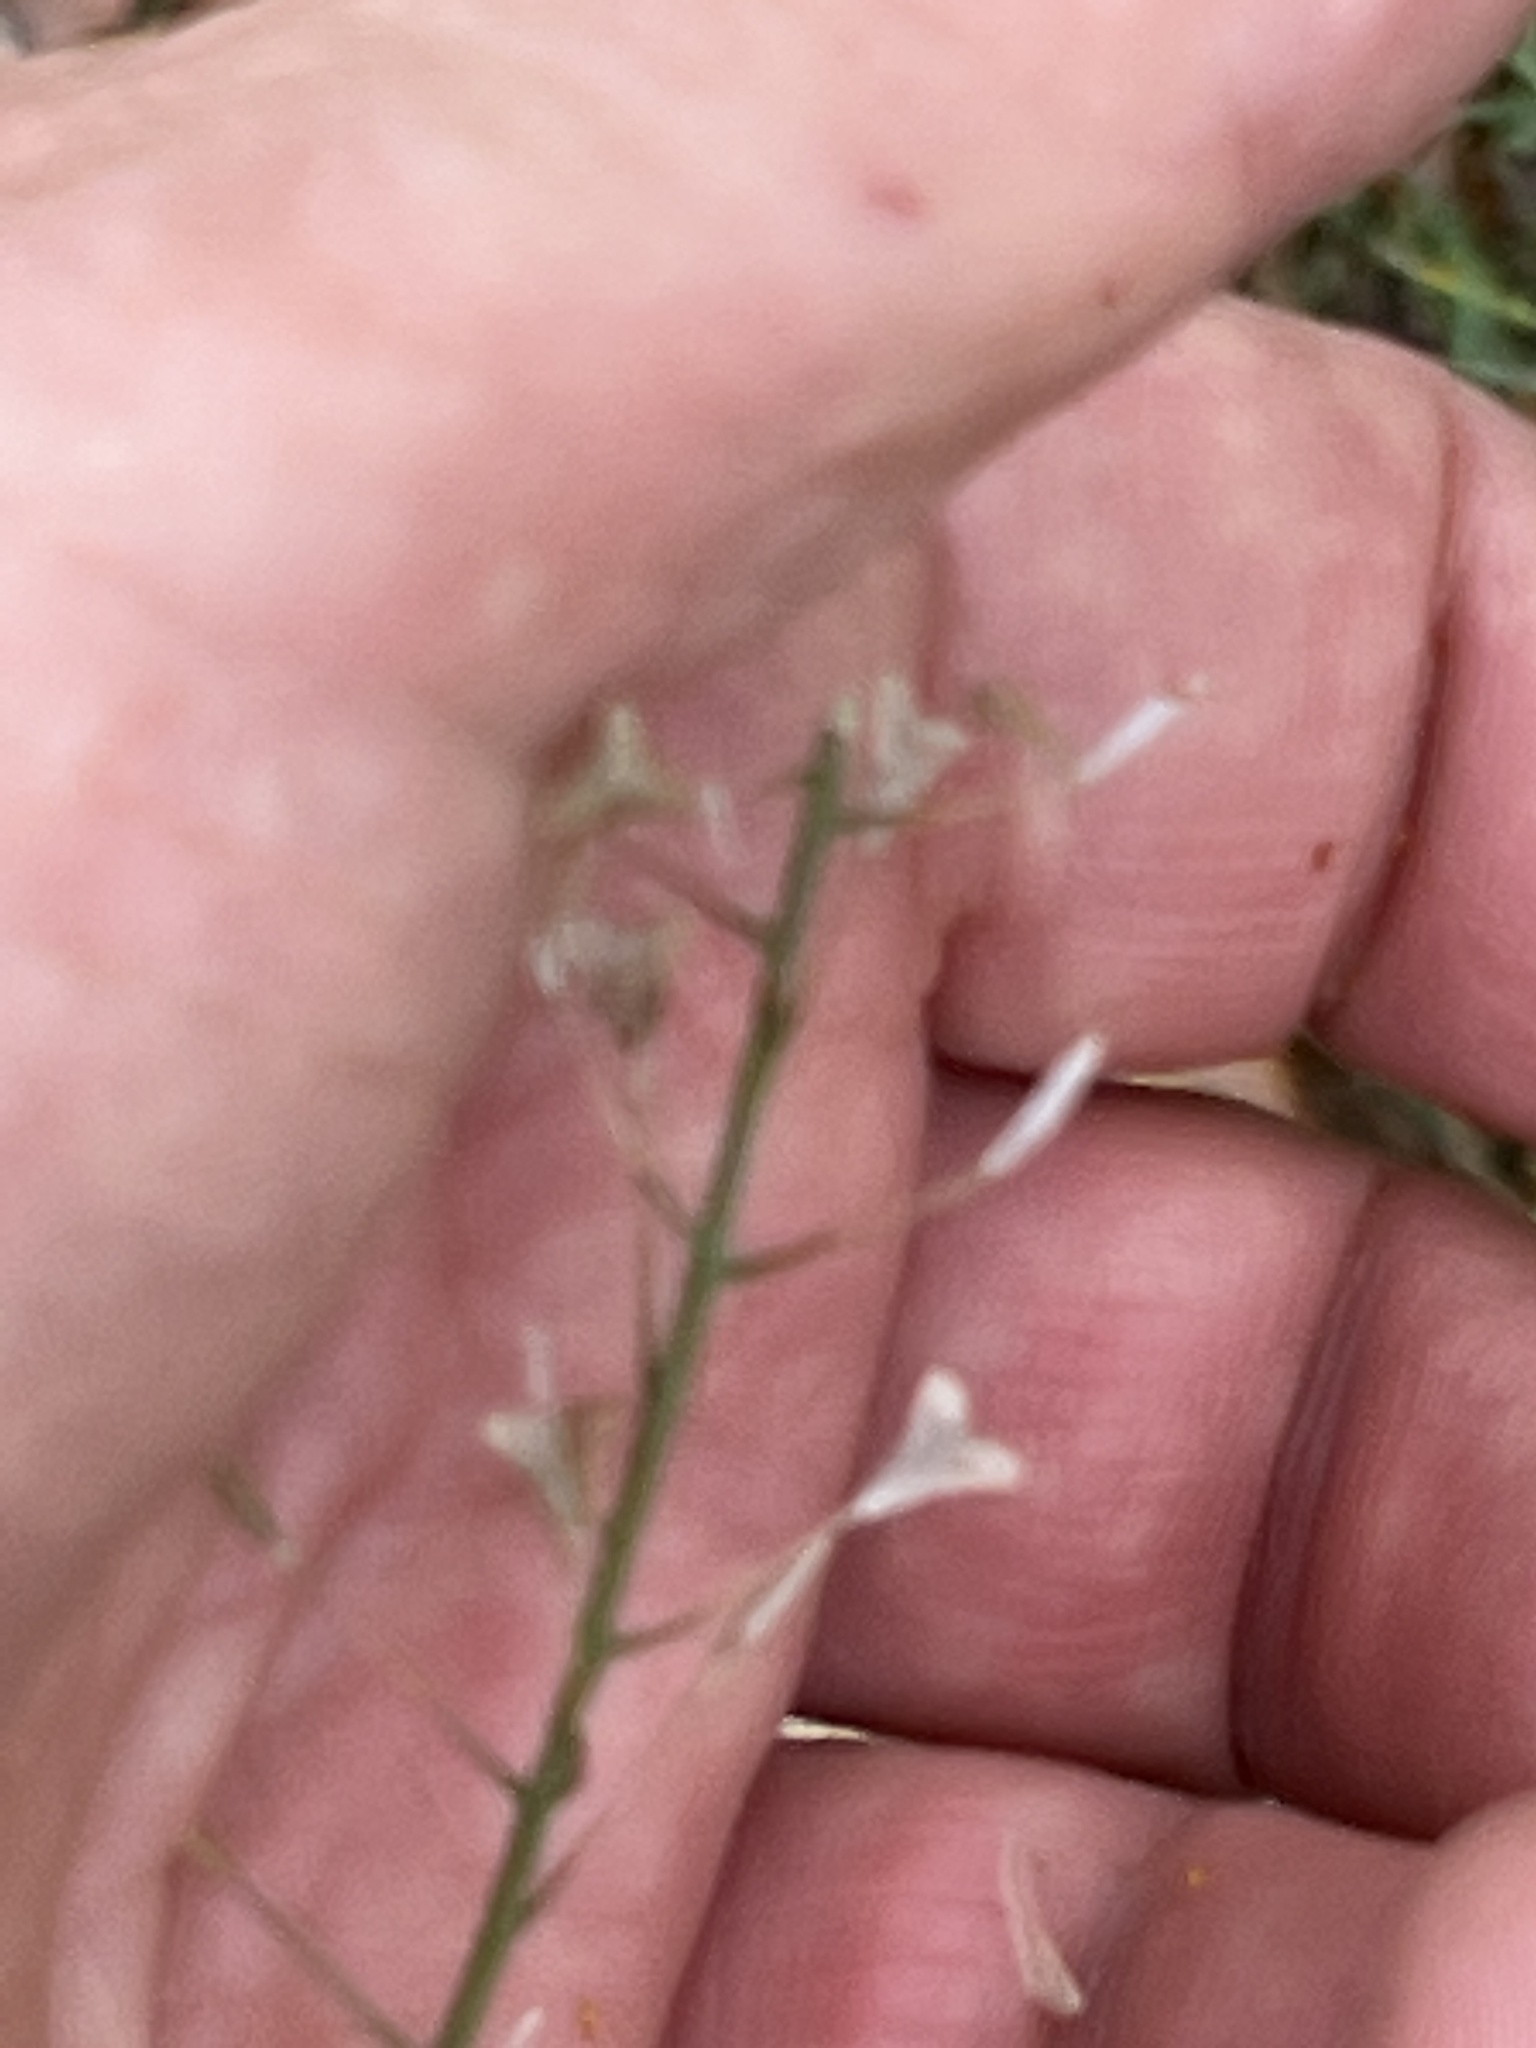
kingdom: Plantae
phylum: Tracheophyta
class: Magnoliopsida
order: Brassicales
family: Brassicaceae
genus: Capsella
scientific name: Capsella bursa-pastoris
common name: Shepherd's purse
